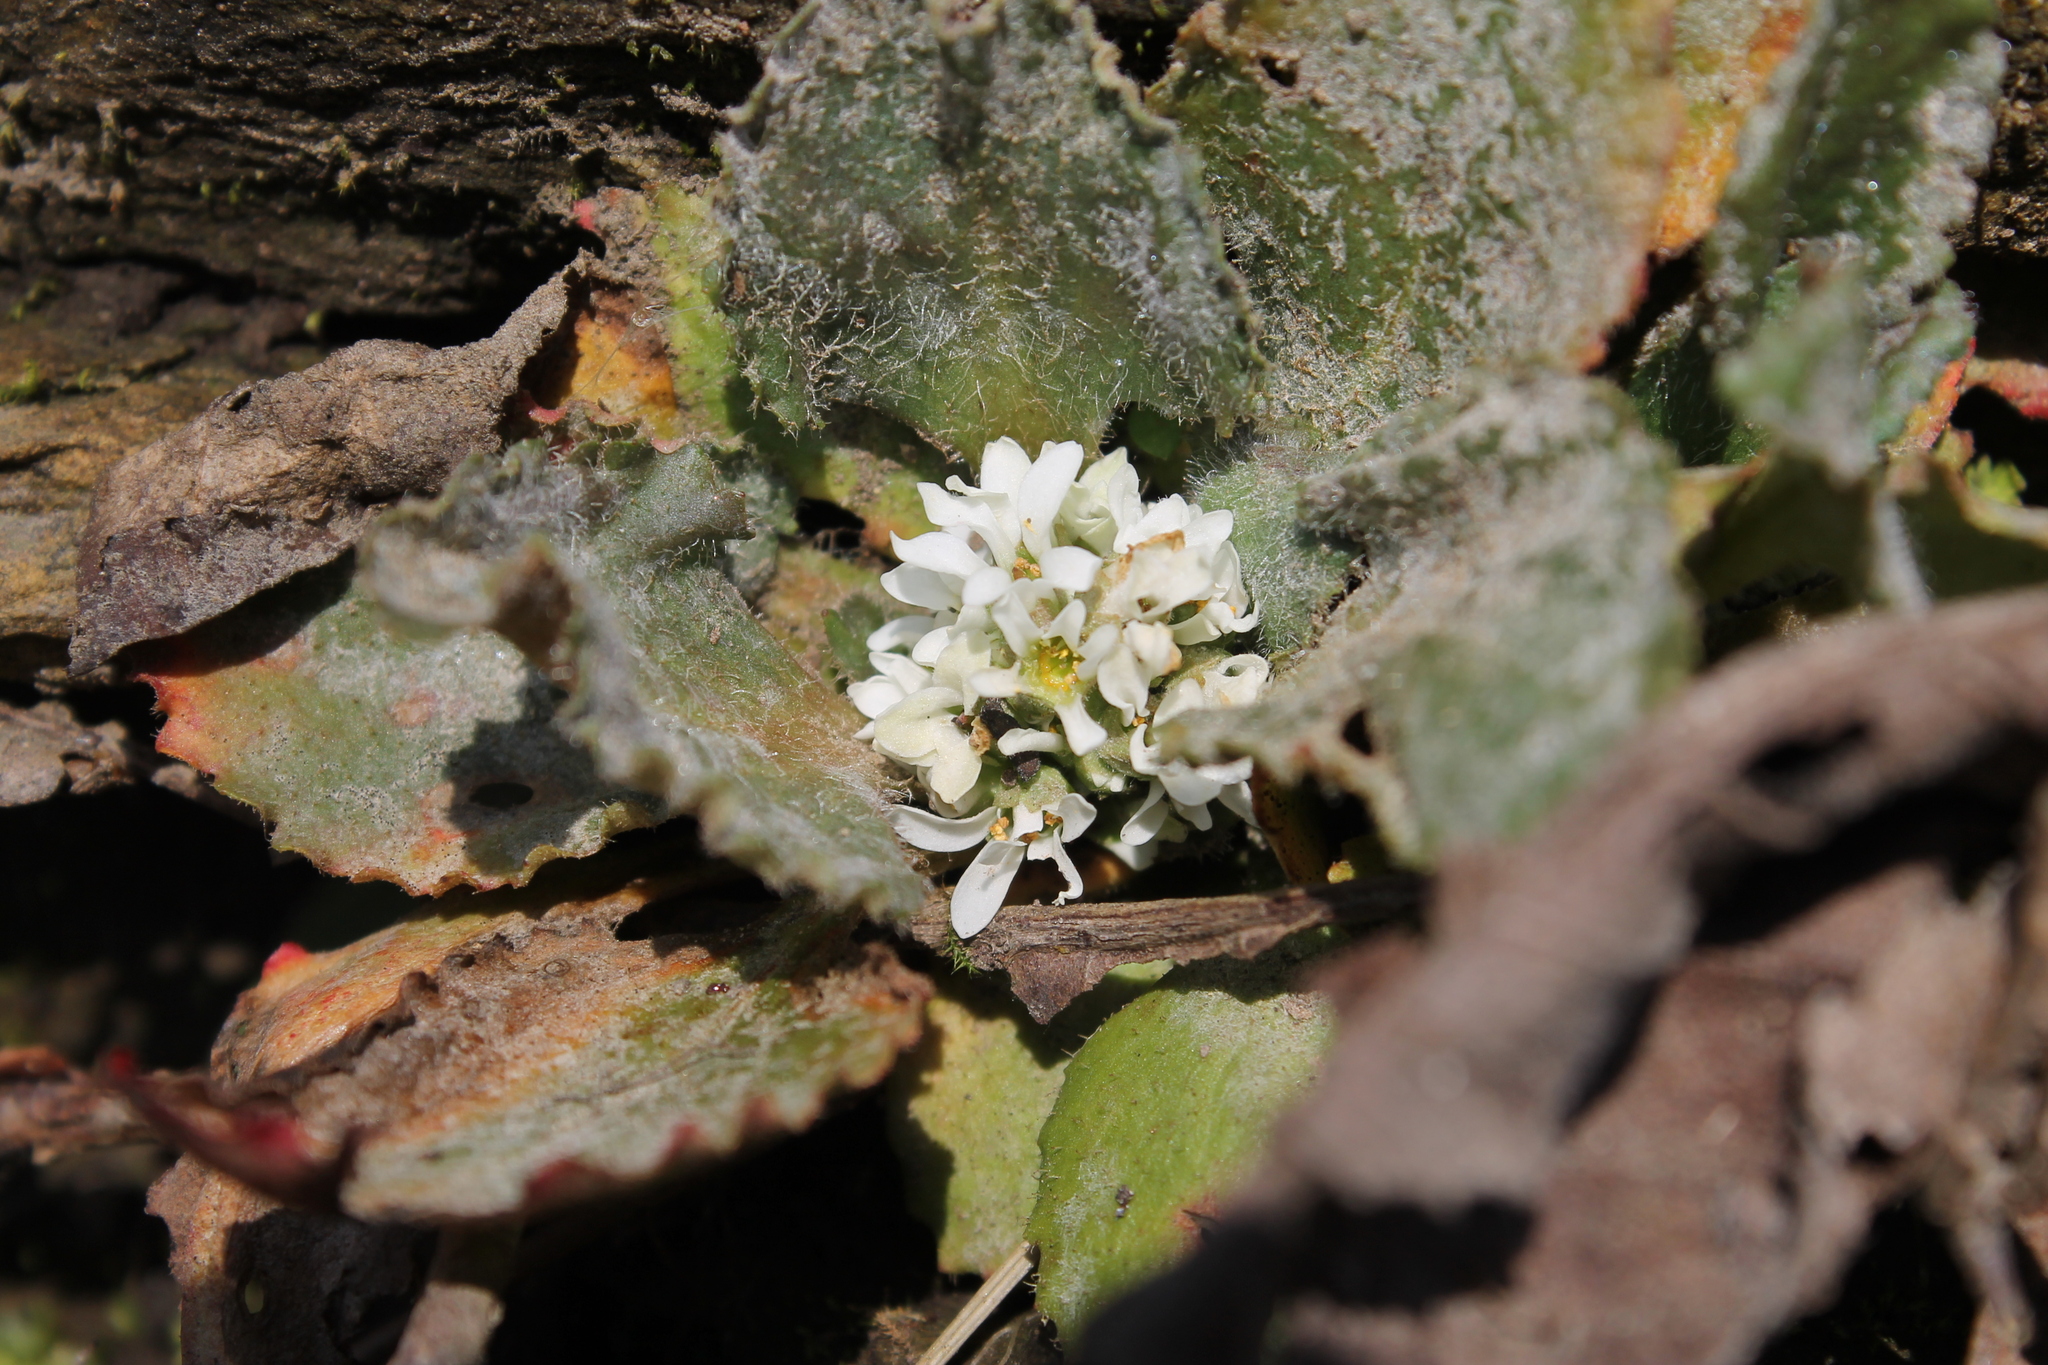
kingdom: Plantae
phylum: Tracheophyta
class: Magnoliopsida
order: Saxifragales
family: Saxifragaceae
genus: Micranthes
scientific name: Micranthes virginiensis
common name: Early saxifrage
